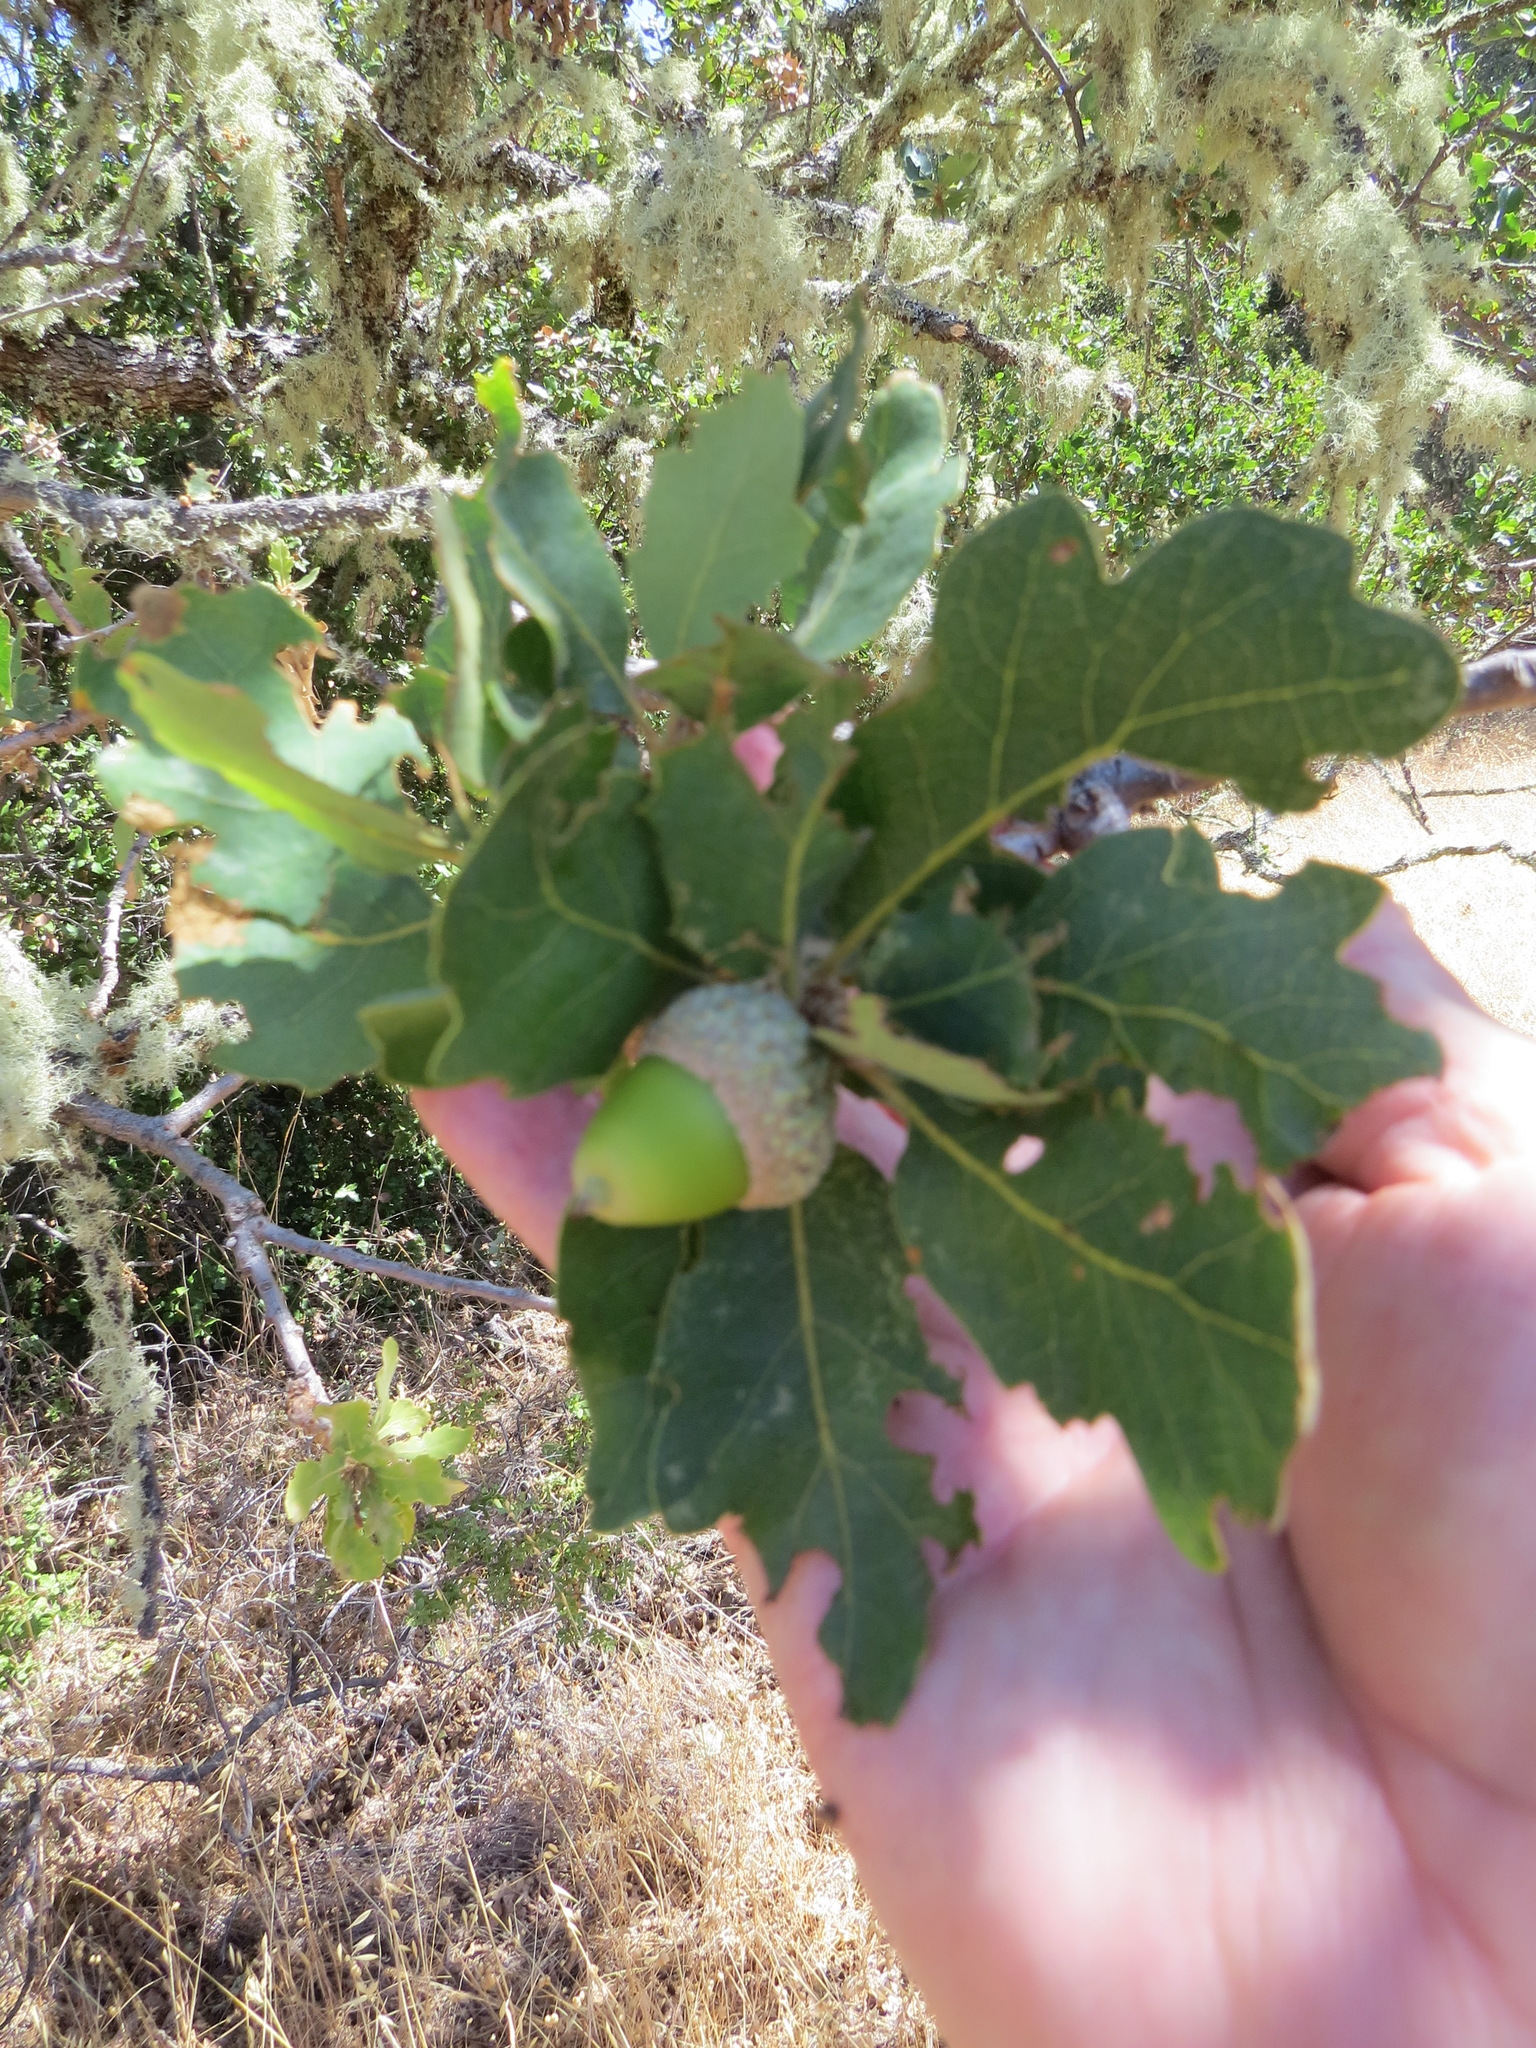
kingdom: Plantae
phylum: Tracheophyta
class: Magnoliopsida
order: Fagales
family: Fagaceae
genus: Quercus
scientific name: Quercus douglasii
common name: Blue oak
